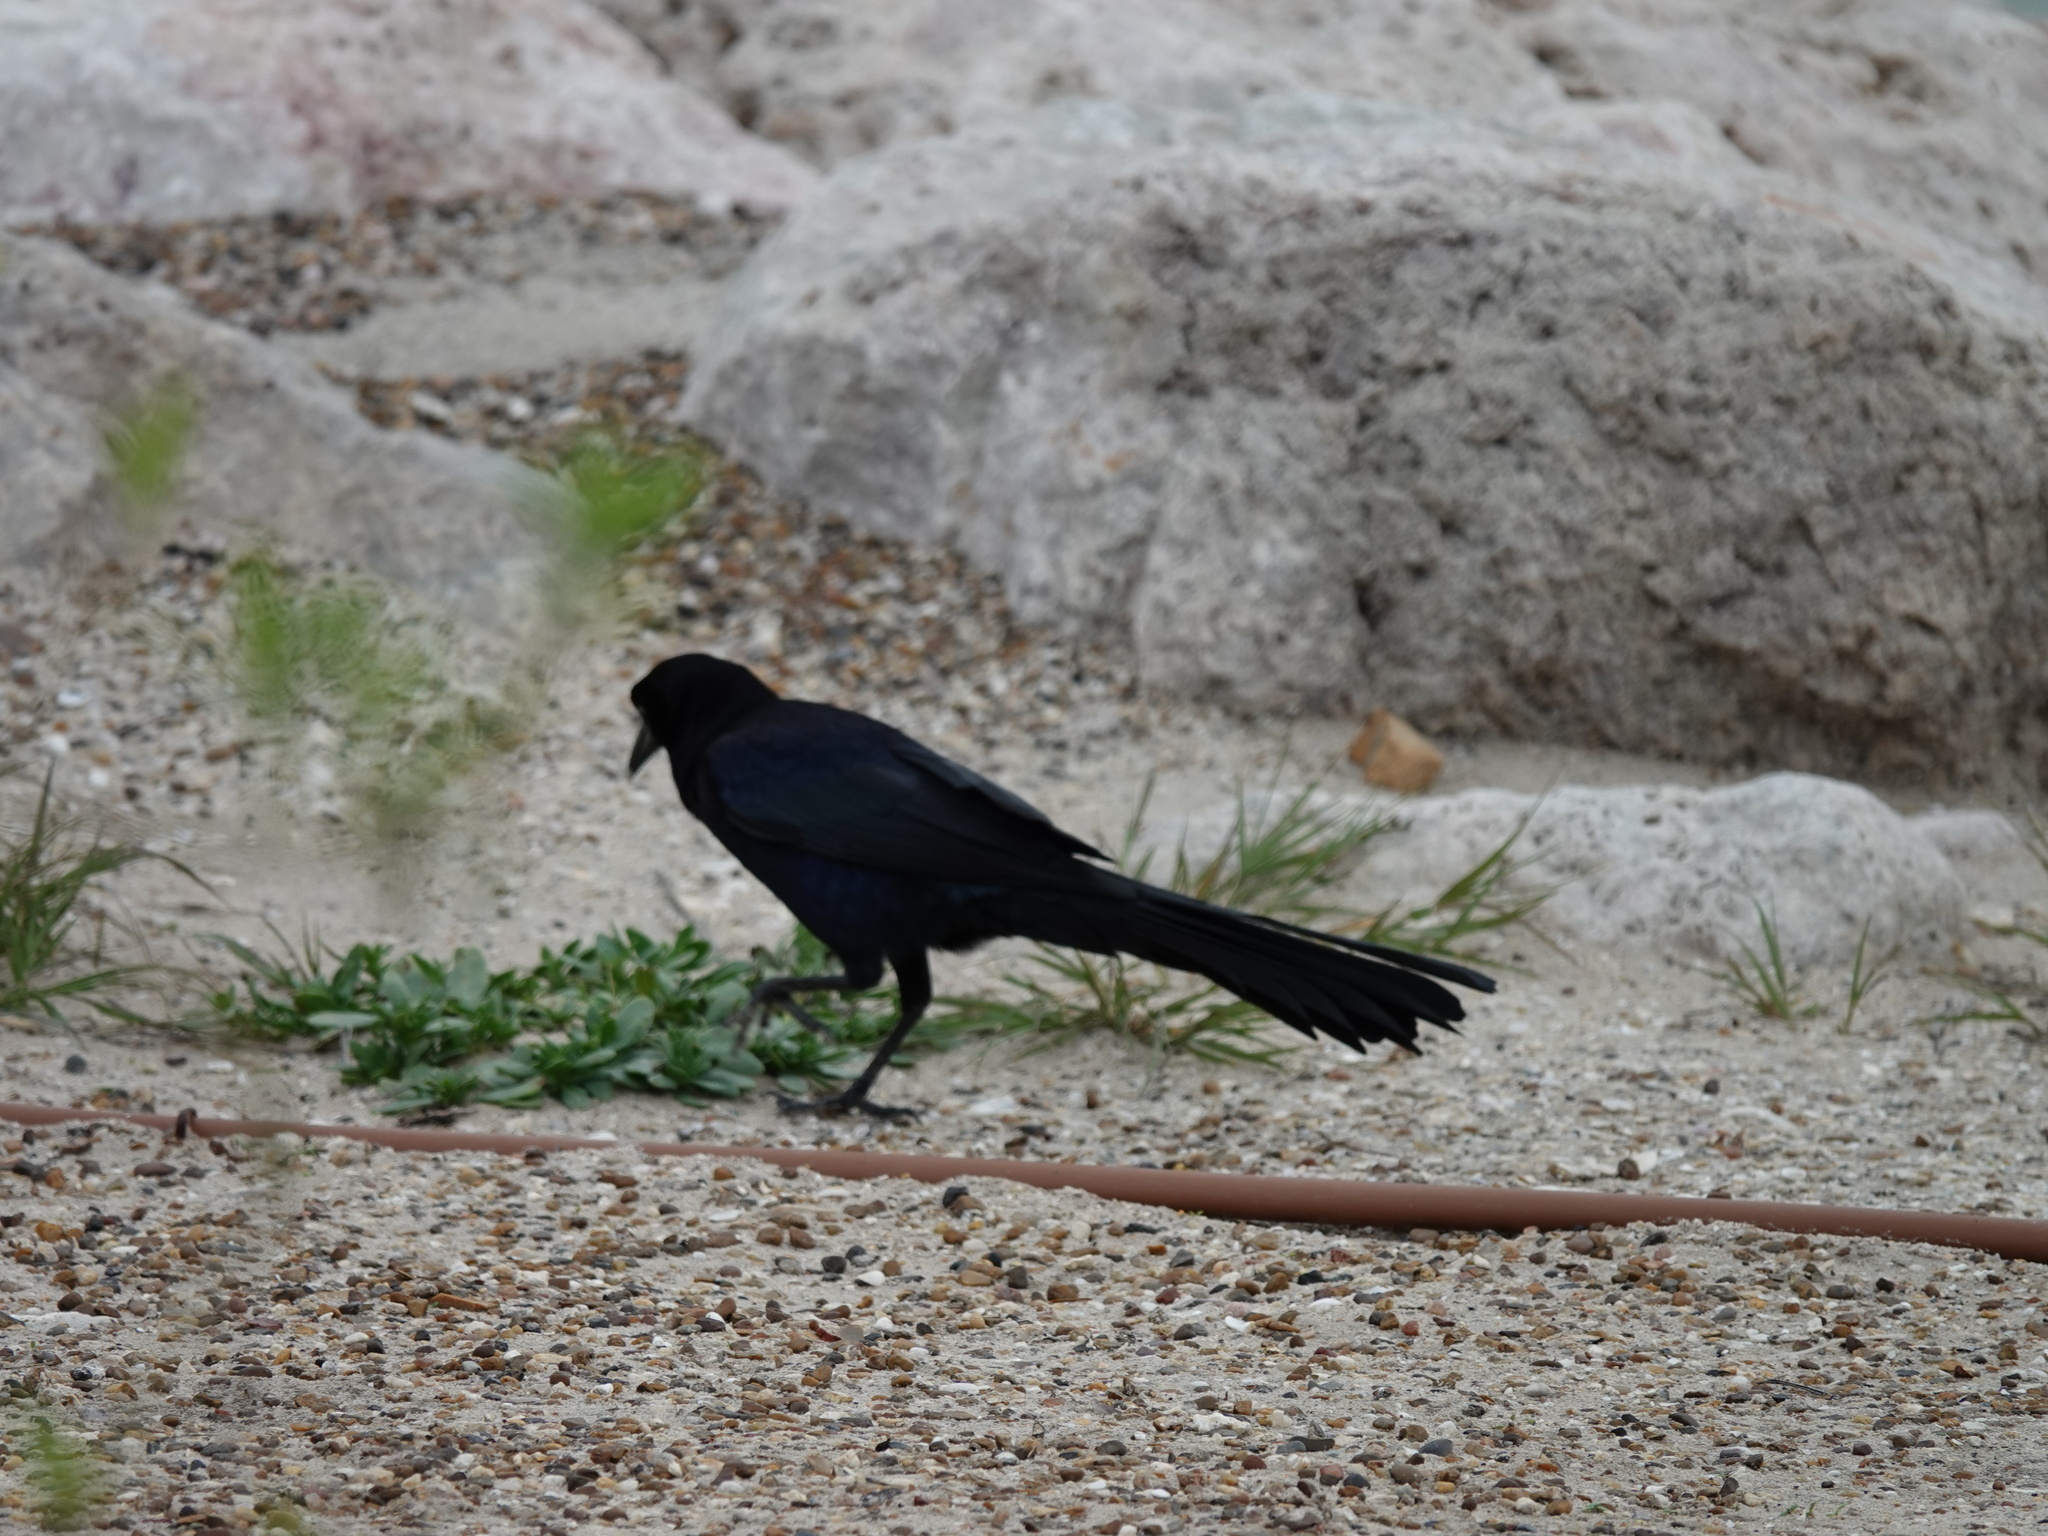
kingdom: Animalia
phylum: Chordata
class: Aves
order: Passeriformes
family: Icteridae
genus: Quiscalus
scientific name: Quiscalus mexicanus
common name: Great-tailed grackle
